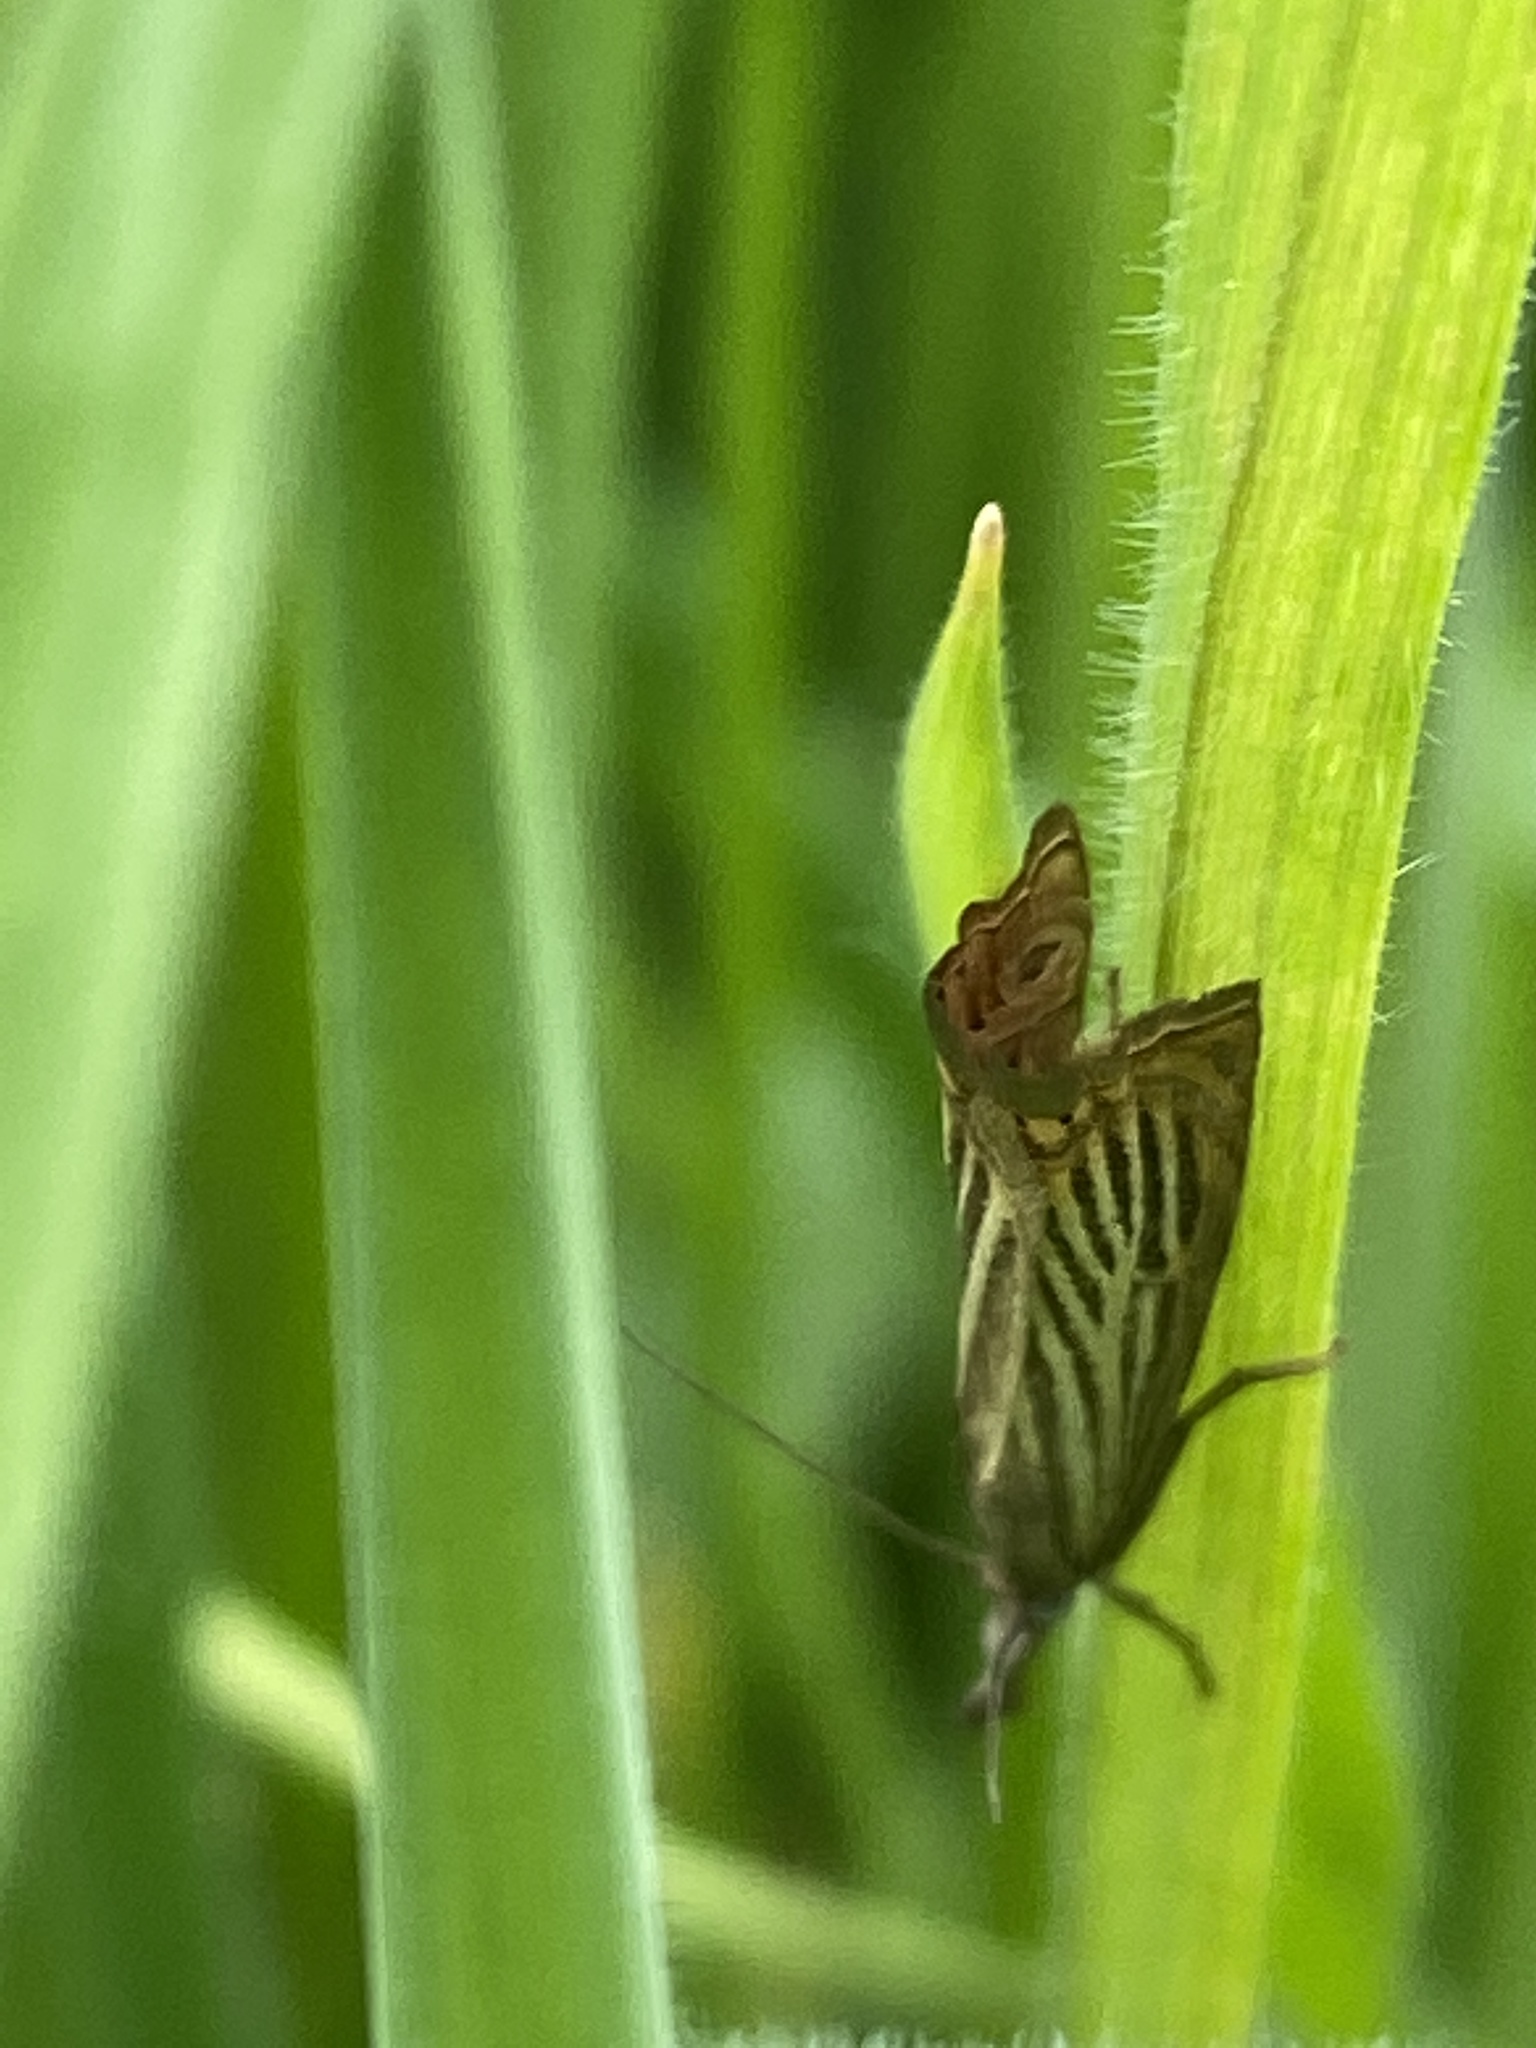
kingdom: Animalia
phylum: Arthropoda
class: Insecta
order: Lepidoptera
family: Crambidae
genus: Chrysoteuchia
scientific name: Chrysoteuchia culmella
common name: Garden grass-veneer
